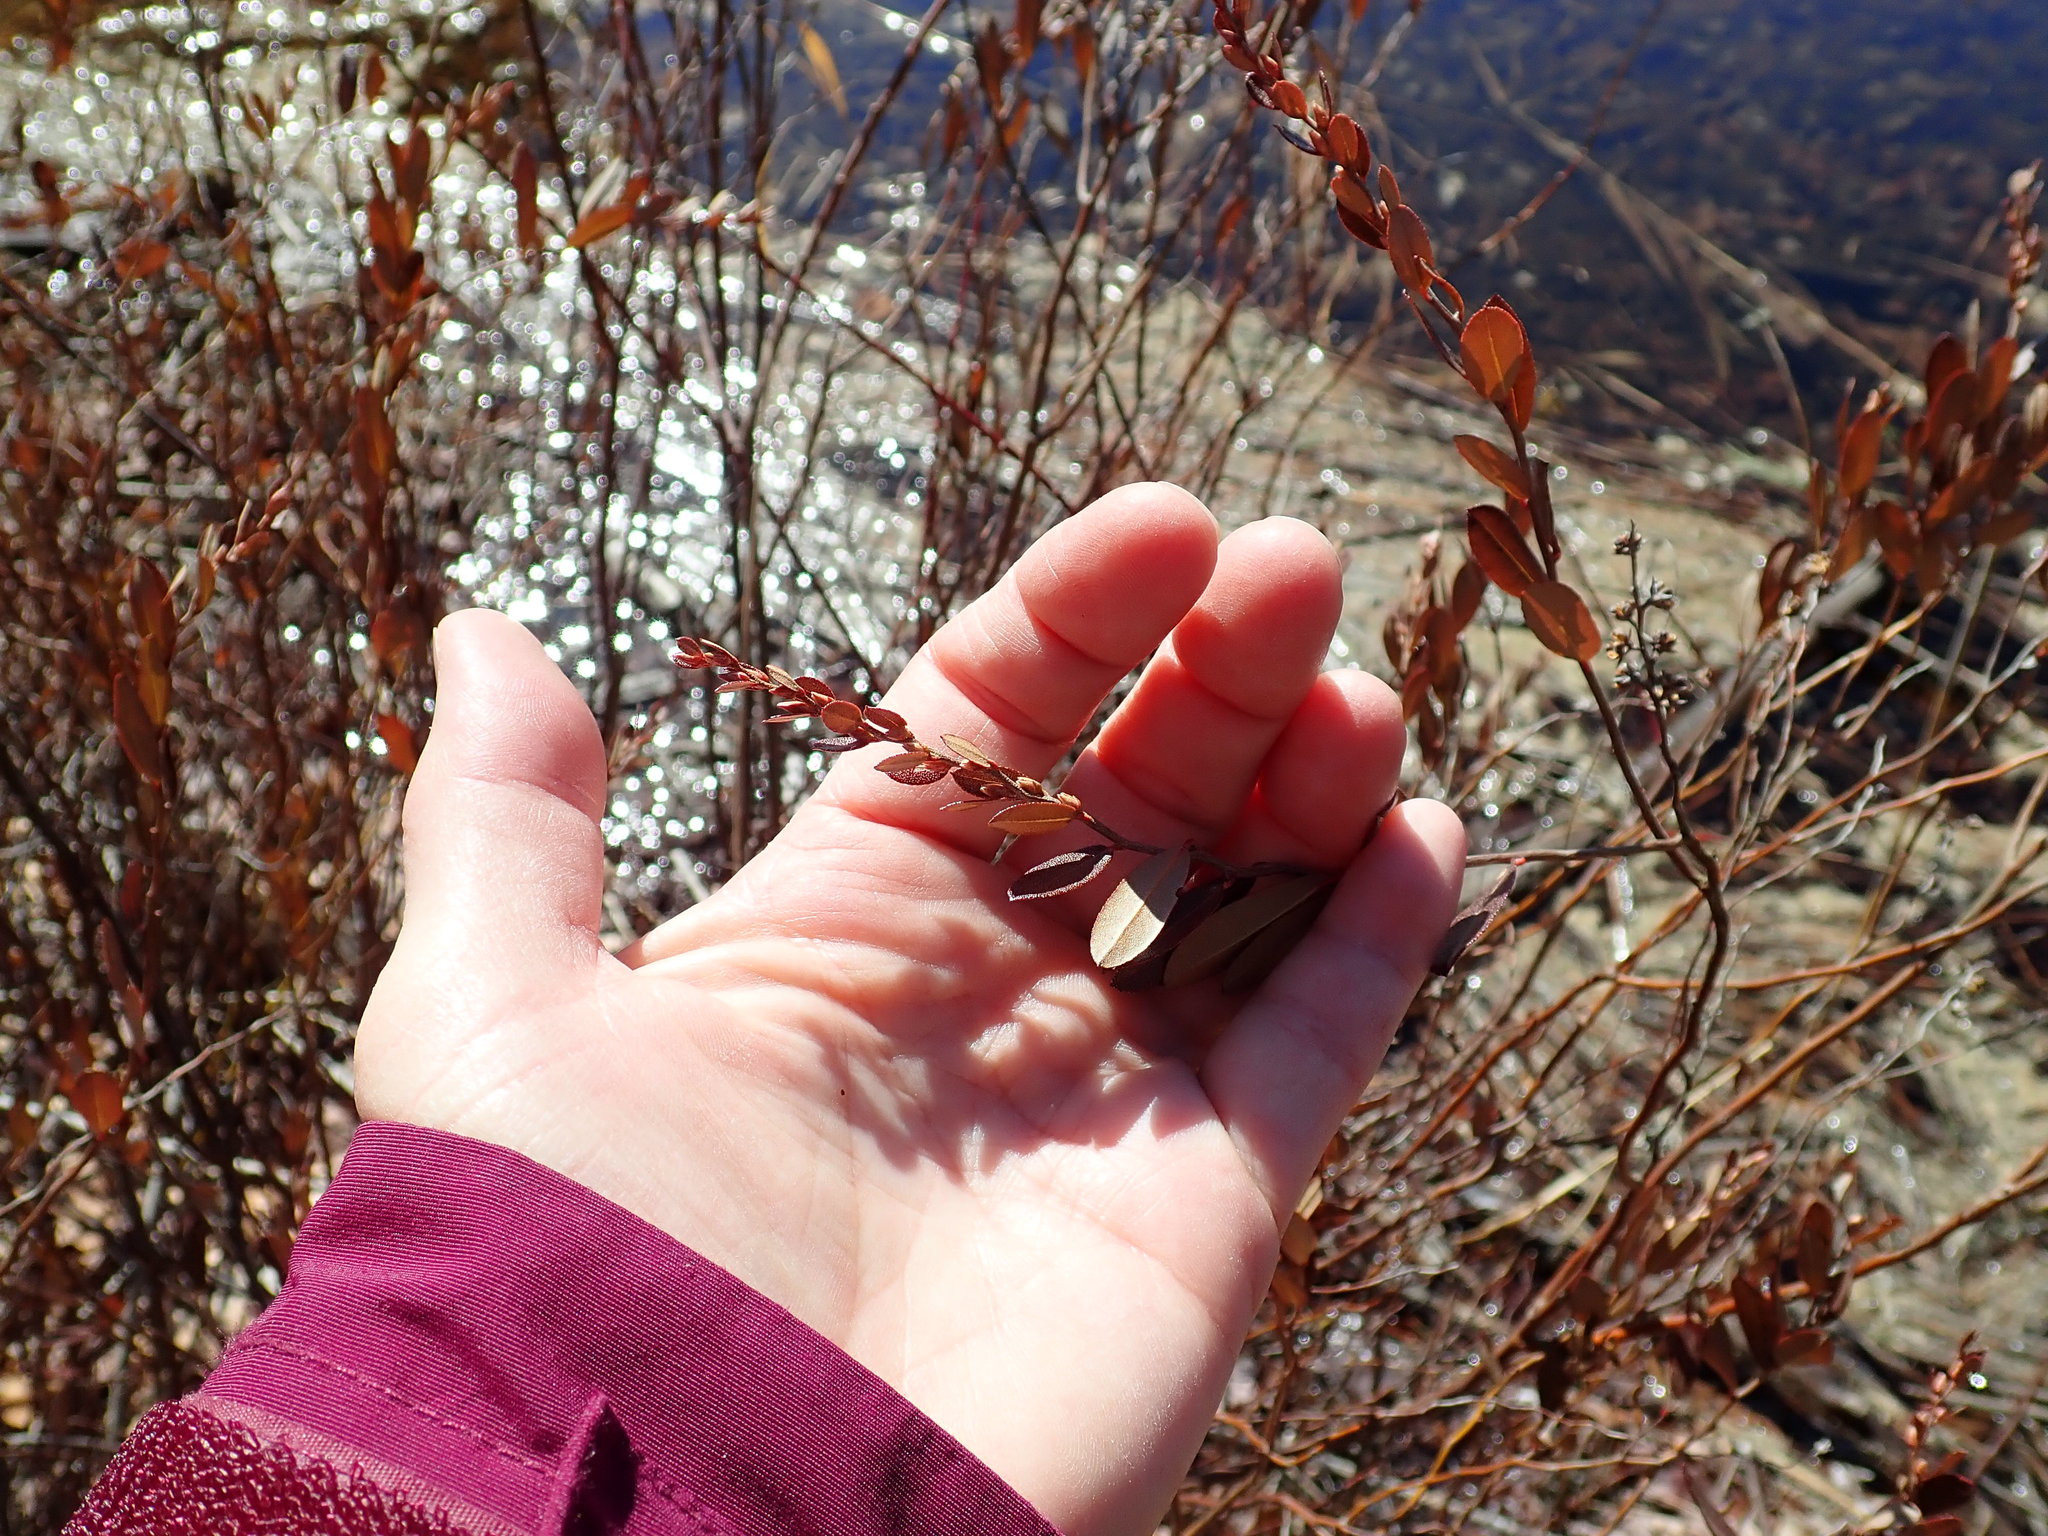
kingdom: Plantae
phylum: Tracheophyta
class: Magnoliopsida
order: Ericales
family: Ericaceae
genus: Chamaedaphne
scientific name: Chamaedaphne calyculata
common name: Leatherleaf
